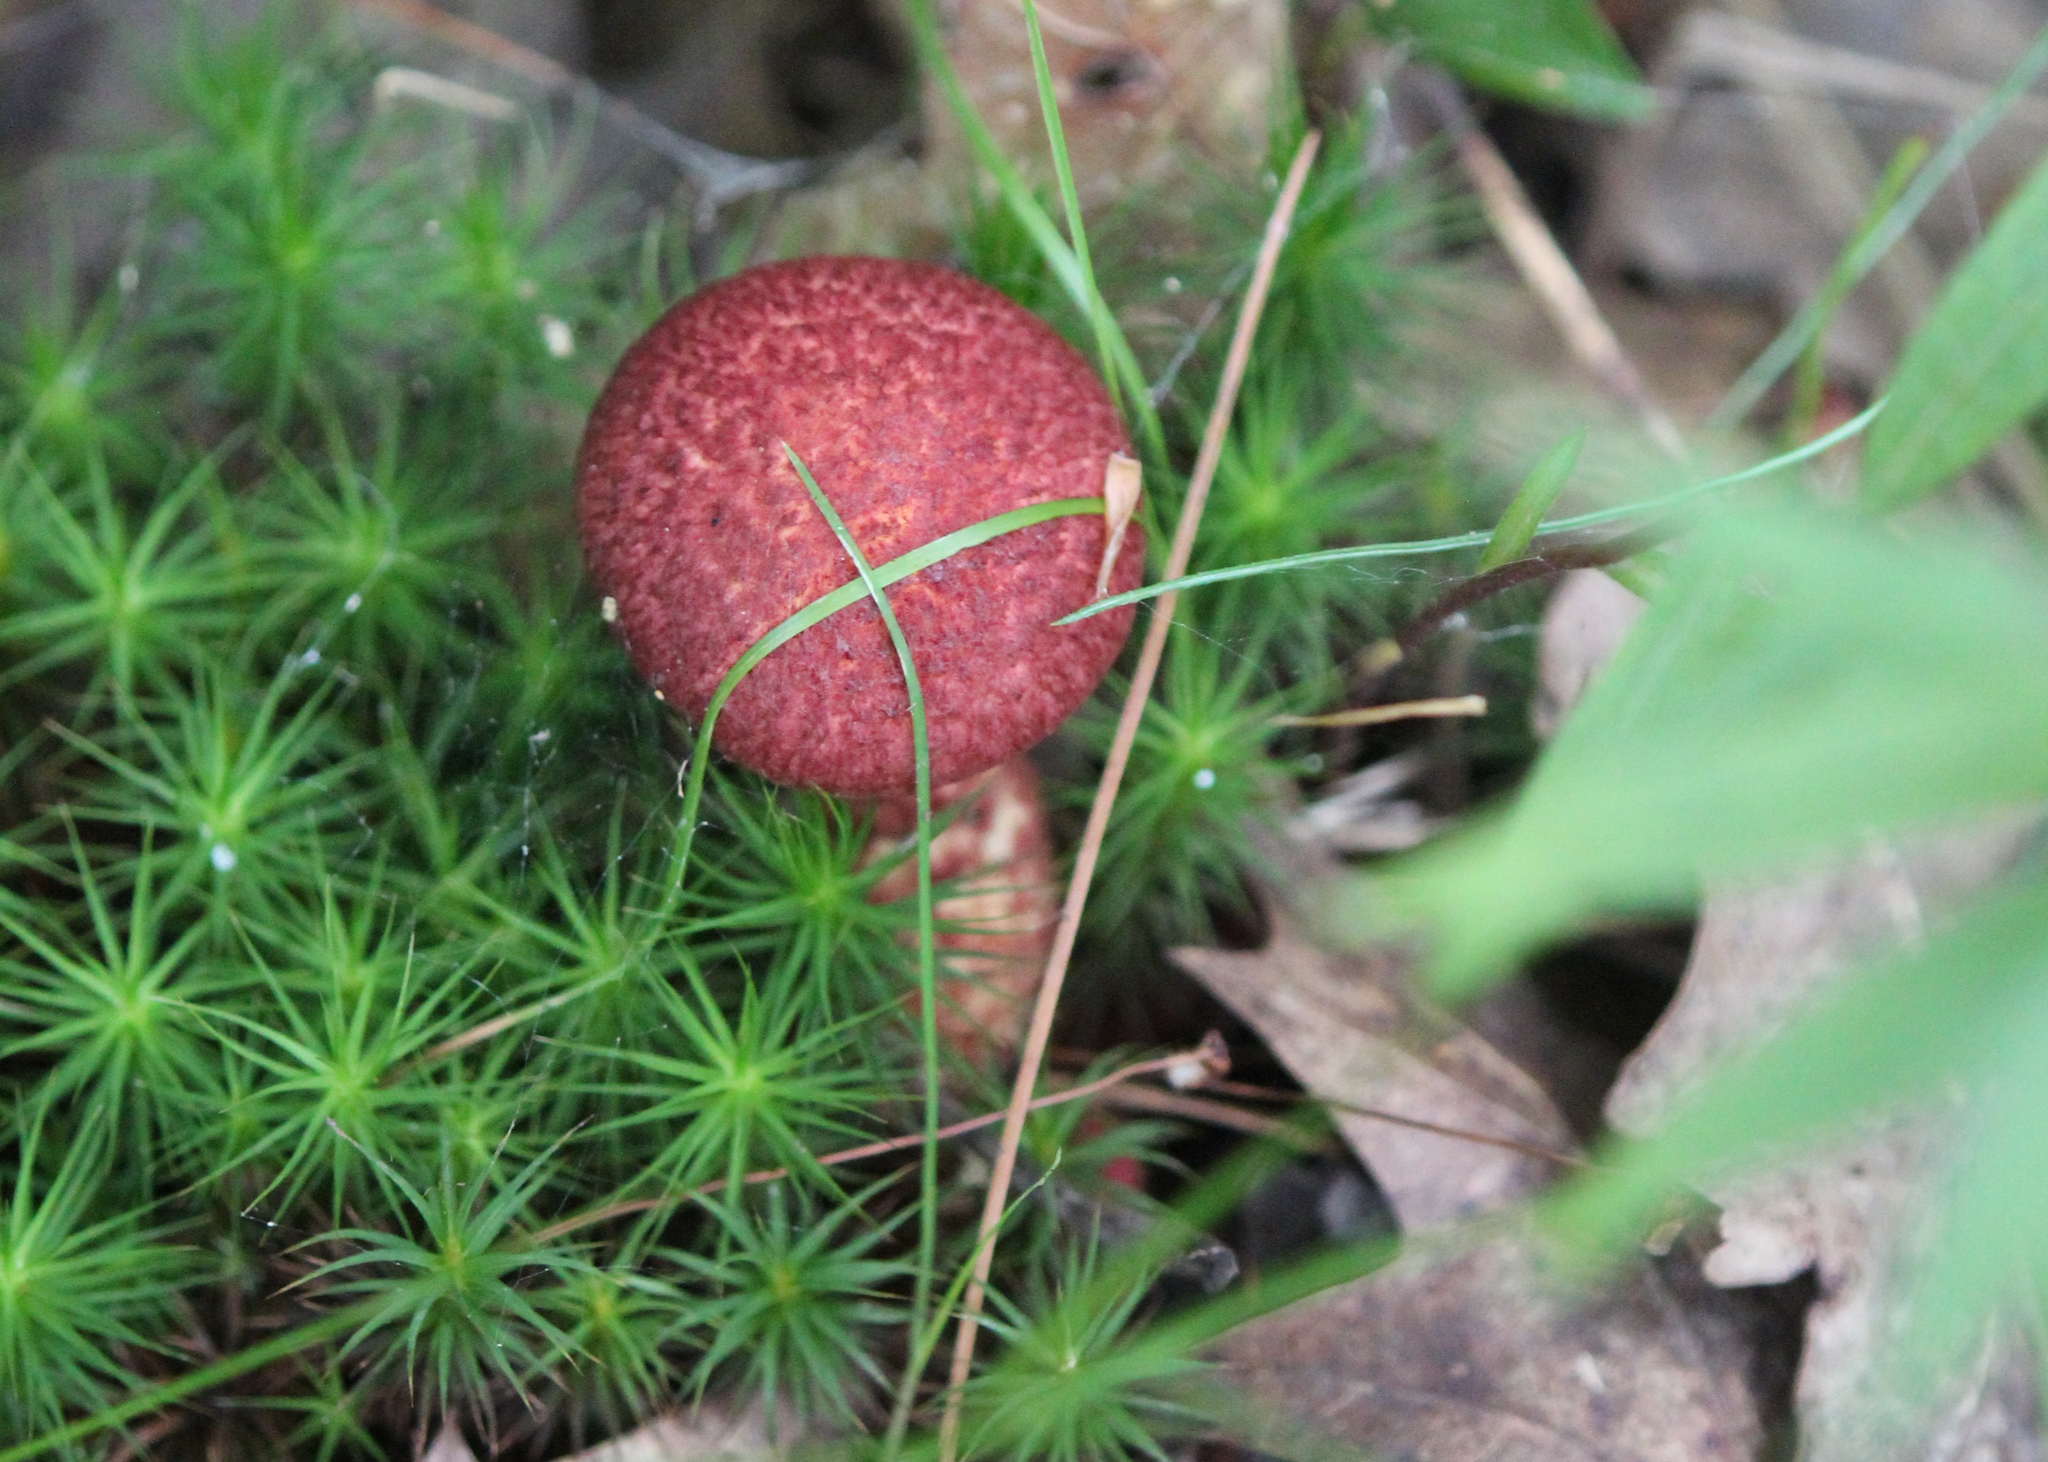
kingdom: Fungi
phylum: Basidiomycota
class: Agaricomycetes
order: Boletales
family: Suillaceae
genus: Suillus
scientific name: Suillus spraguei
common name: Painted suillus
